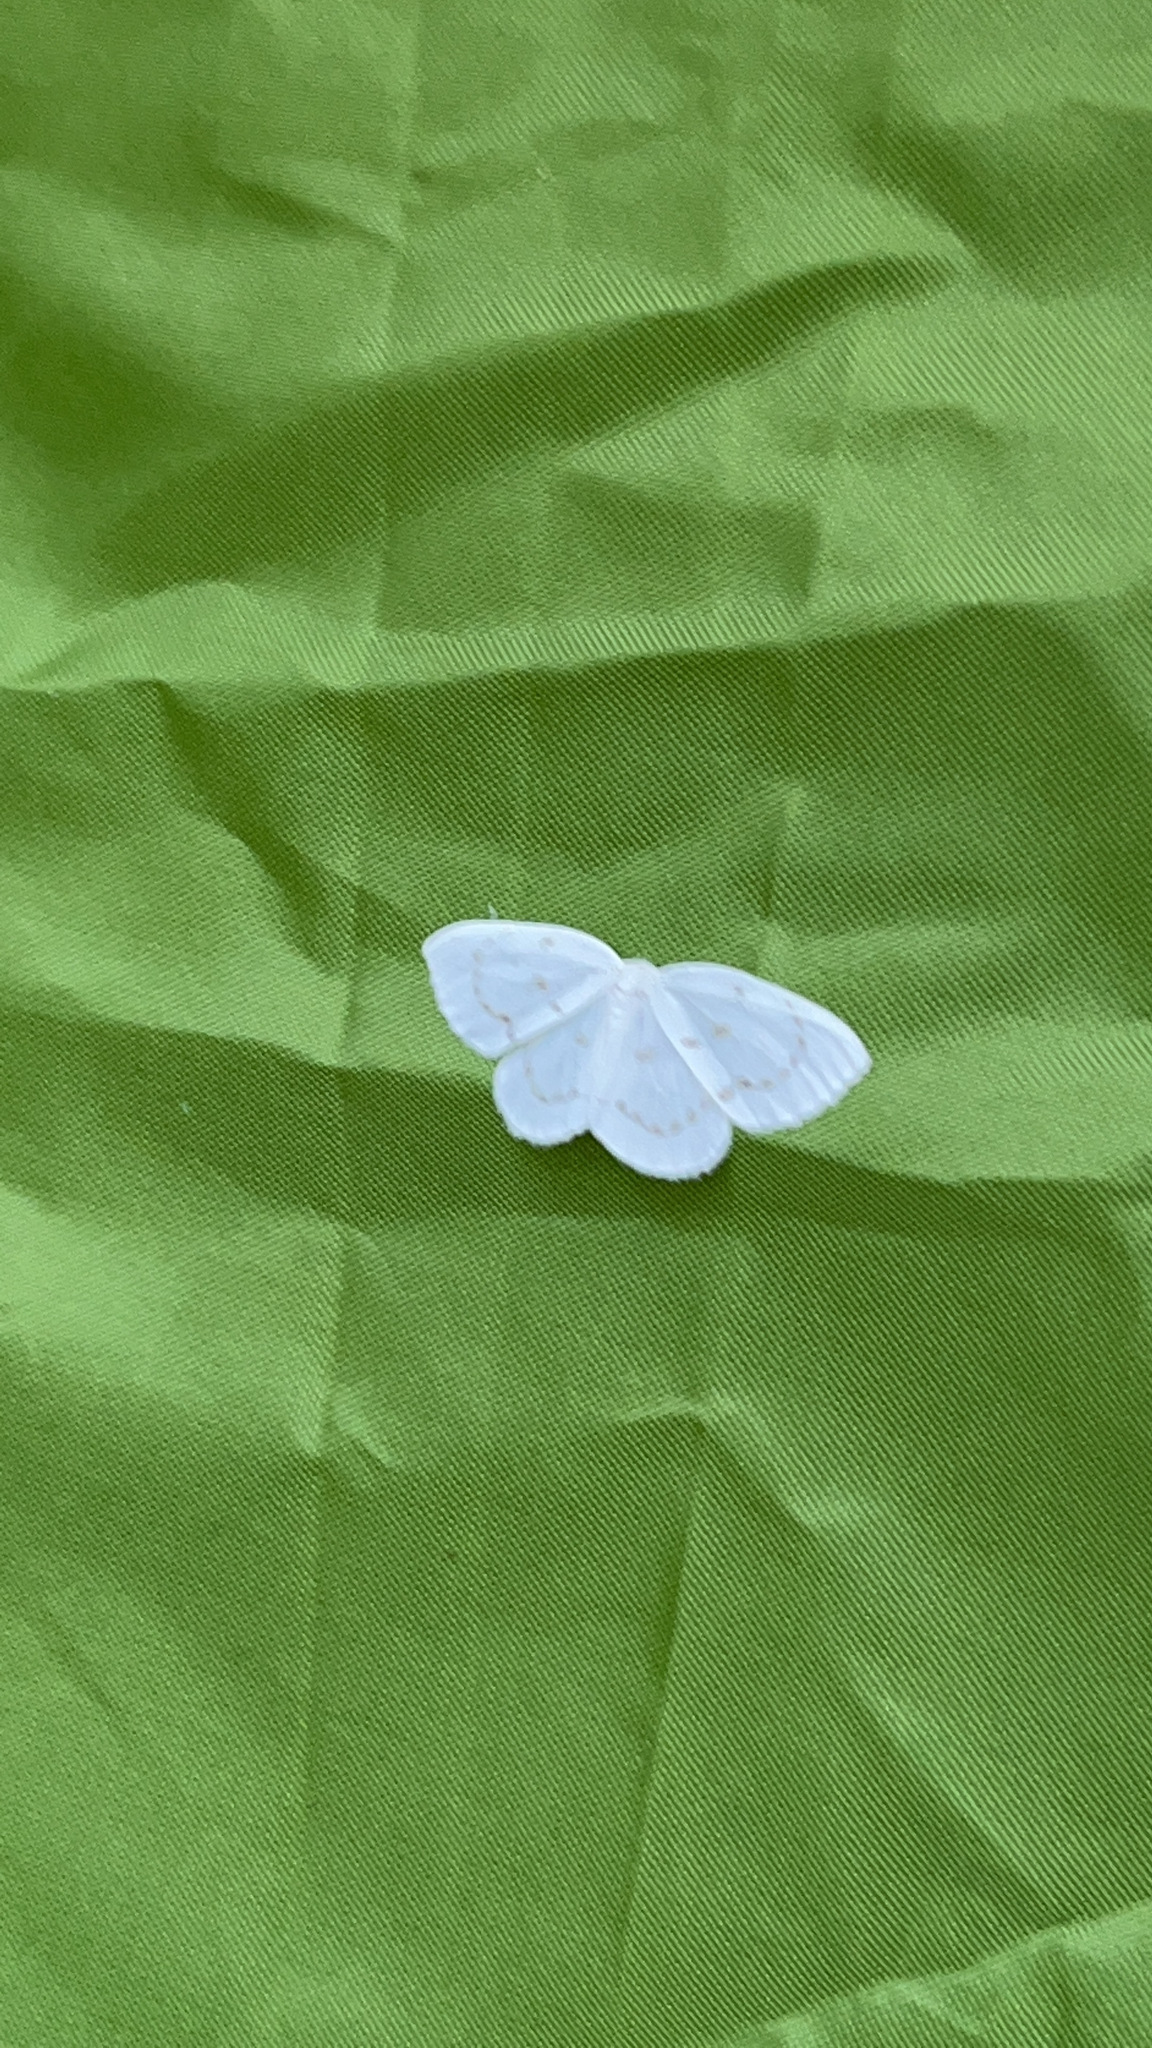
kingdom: Animalia
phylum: Arthropoda
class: Insecta
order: Lepidoptera
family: Drepanidae
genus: Eudeilinia
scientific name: Eudeilinia herminiata
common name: Northern eudeilinea moth
